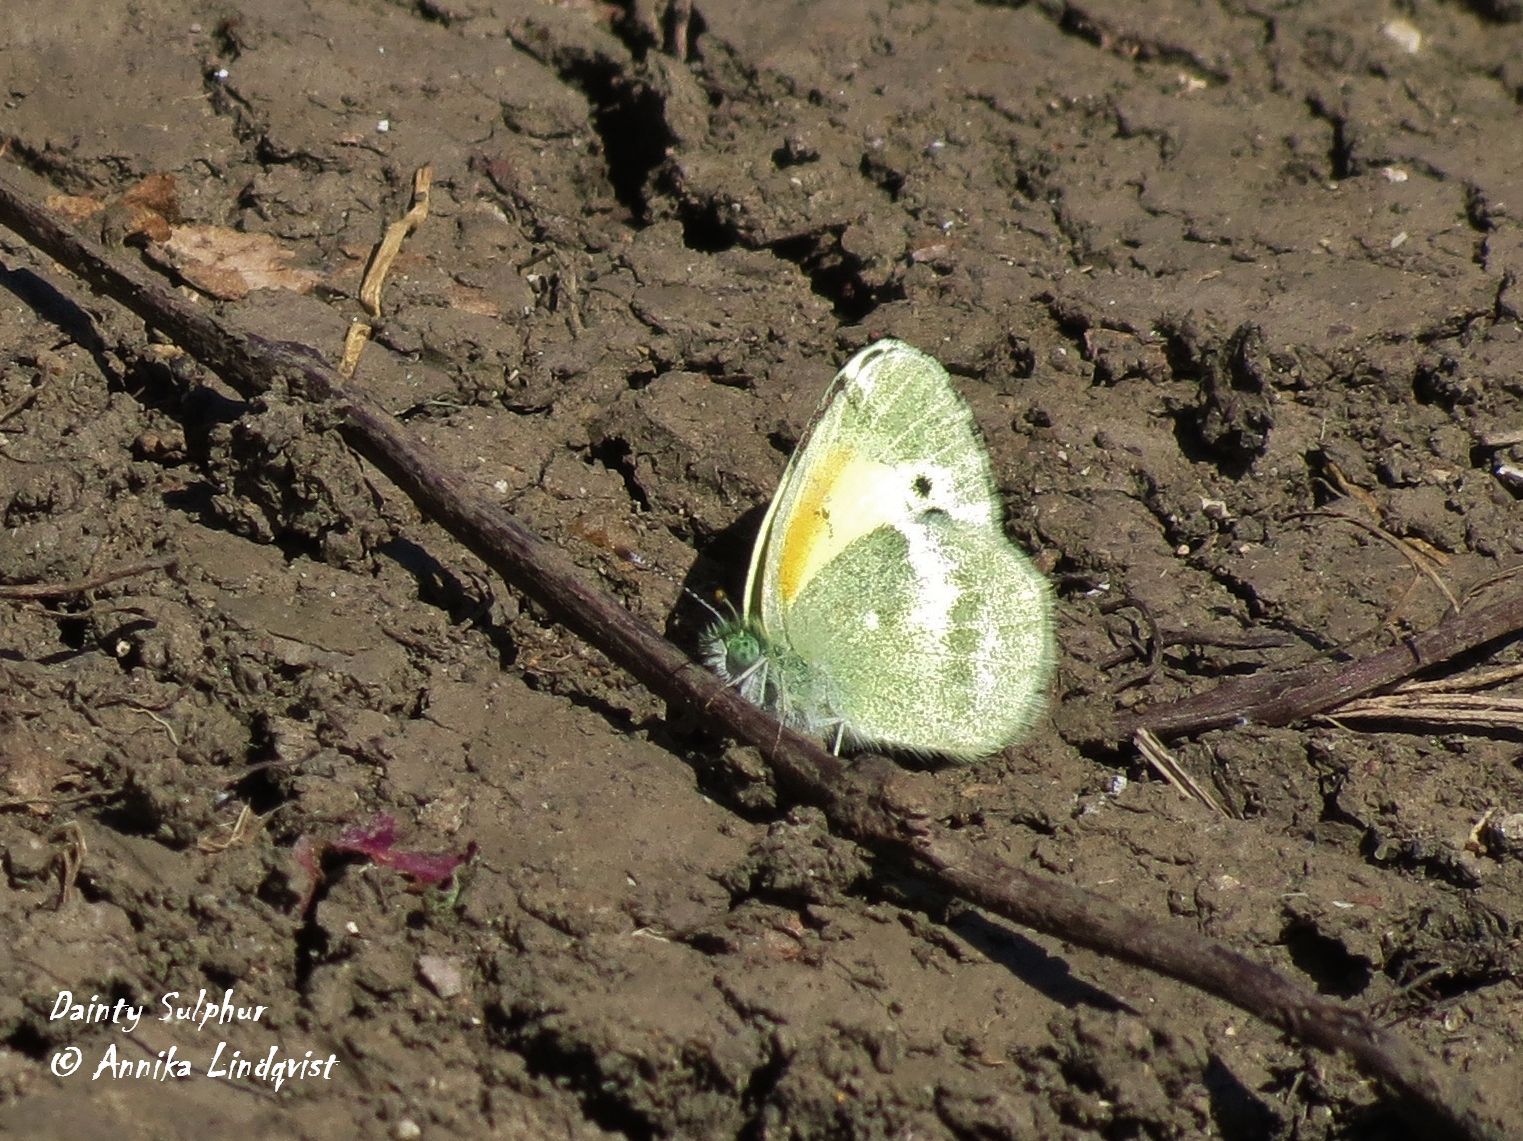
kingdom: Animalia
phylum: Arthropoda
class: Insecta
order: Lepidoptera
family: Pieridae
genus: Nathalis
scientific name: Nathalis iole
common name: Dainty sulphur
